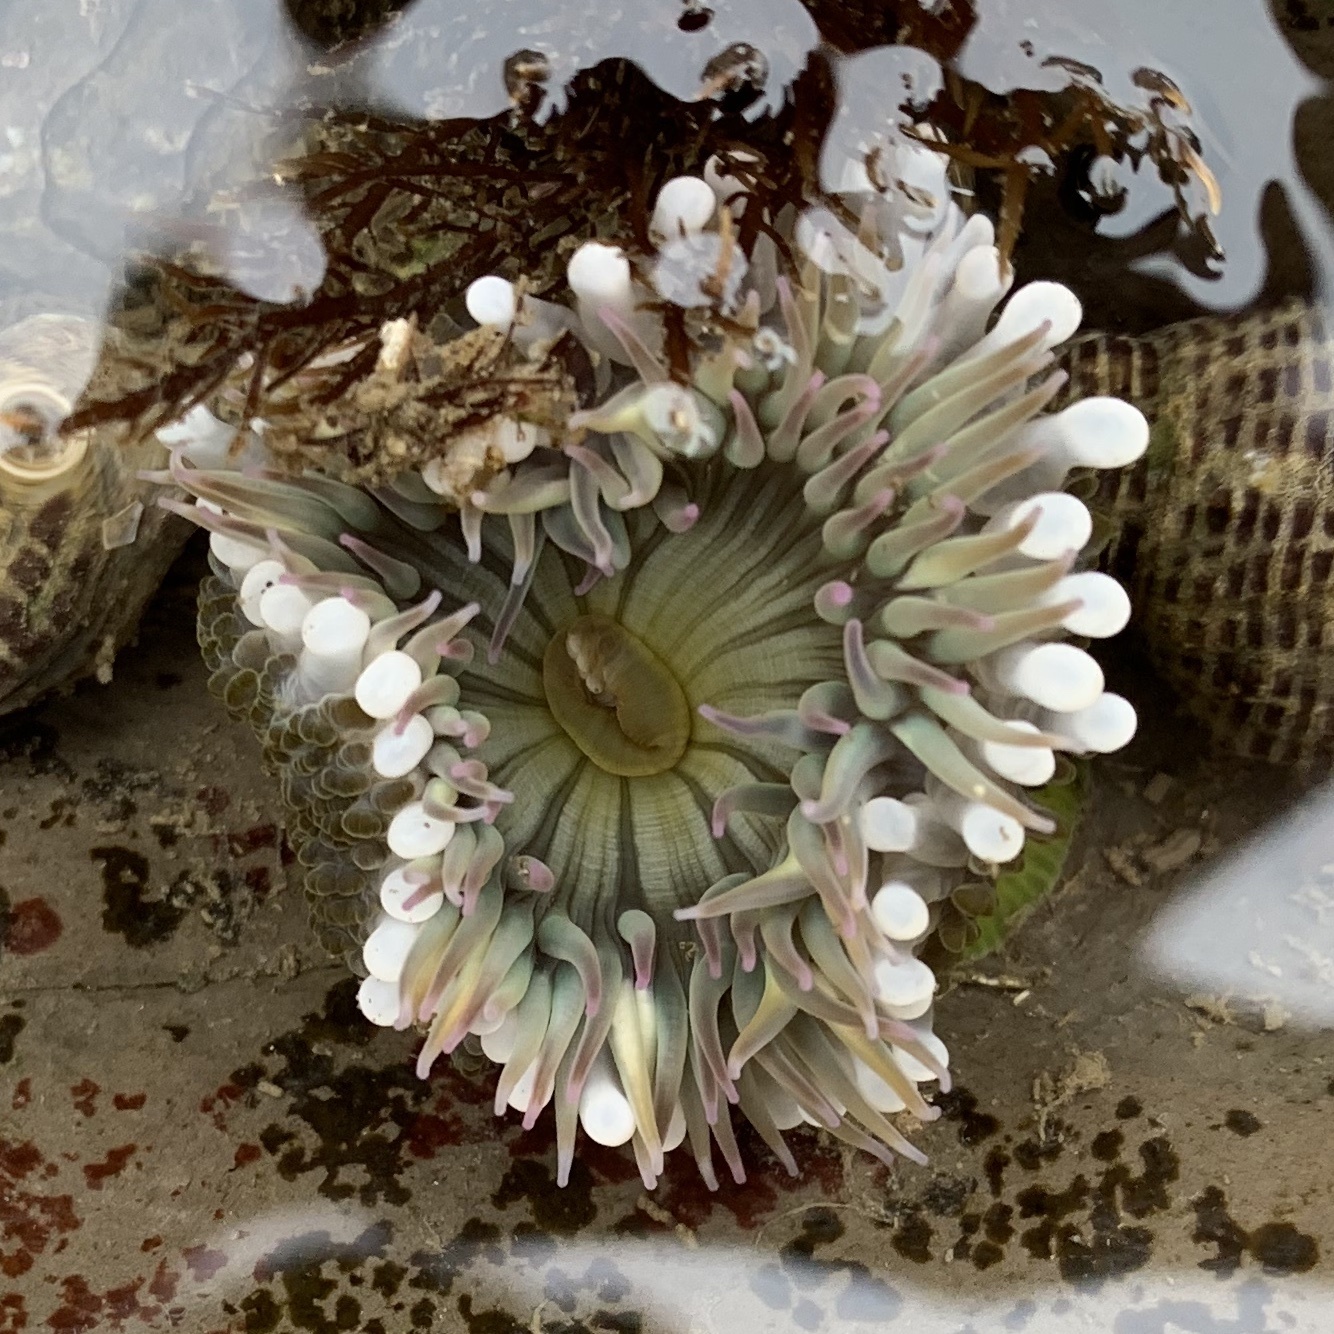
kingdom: Animalia
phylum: Cnidaria
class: Anthozoa
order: Actiniaria
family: Actiniidae
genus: Anthopleura
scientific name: Anthopleura elegantissima
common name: Clonal anemone
